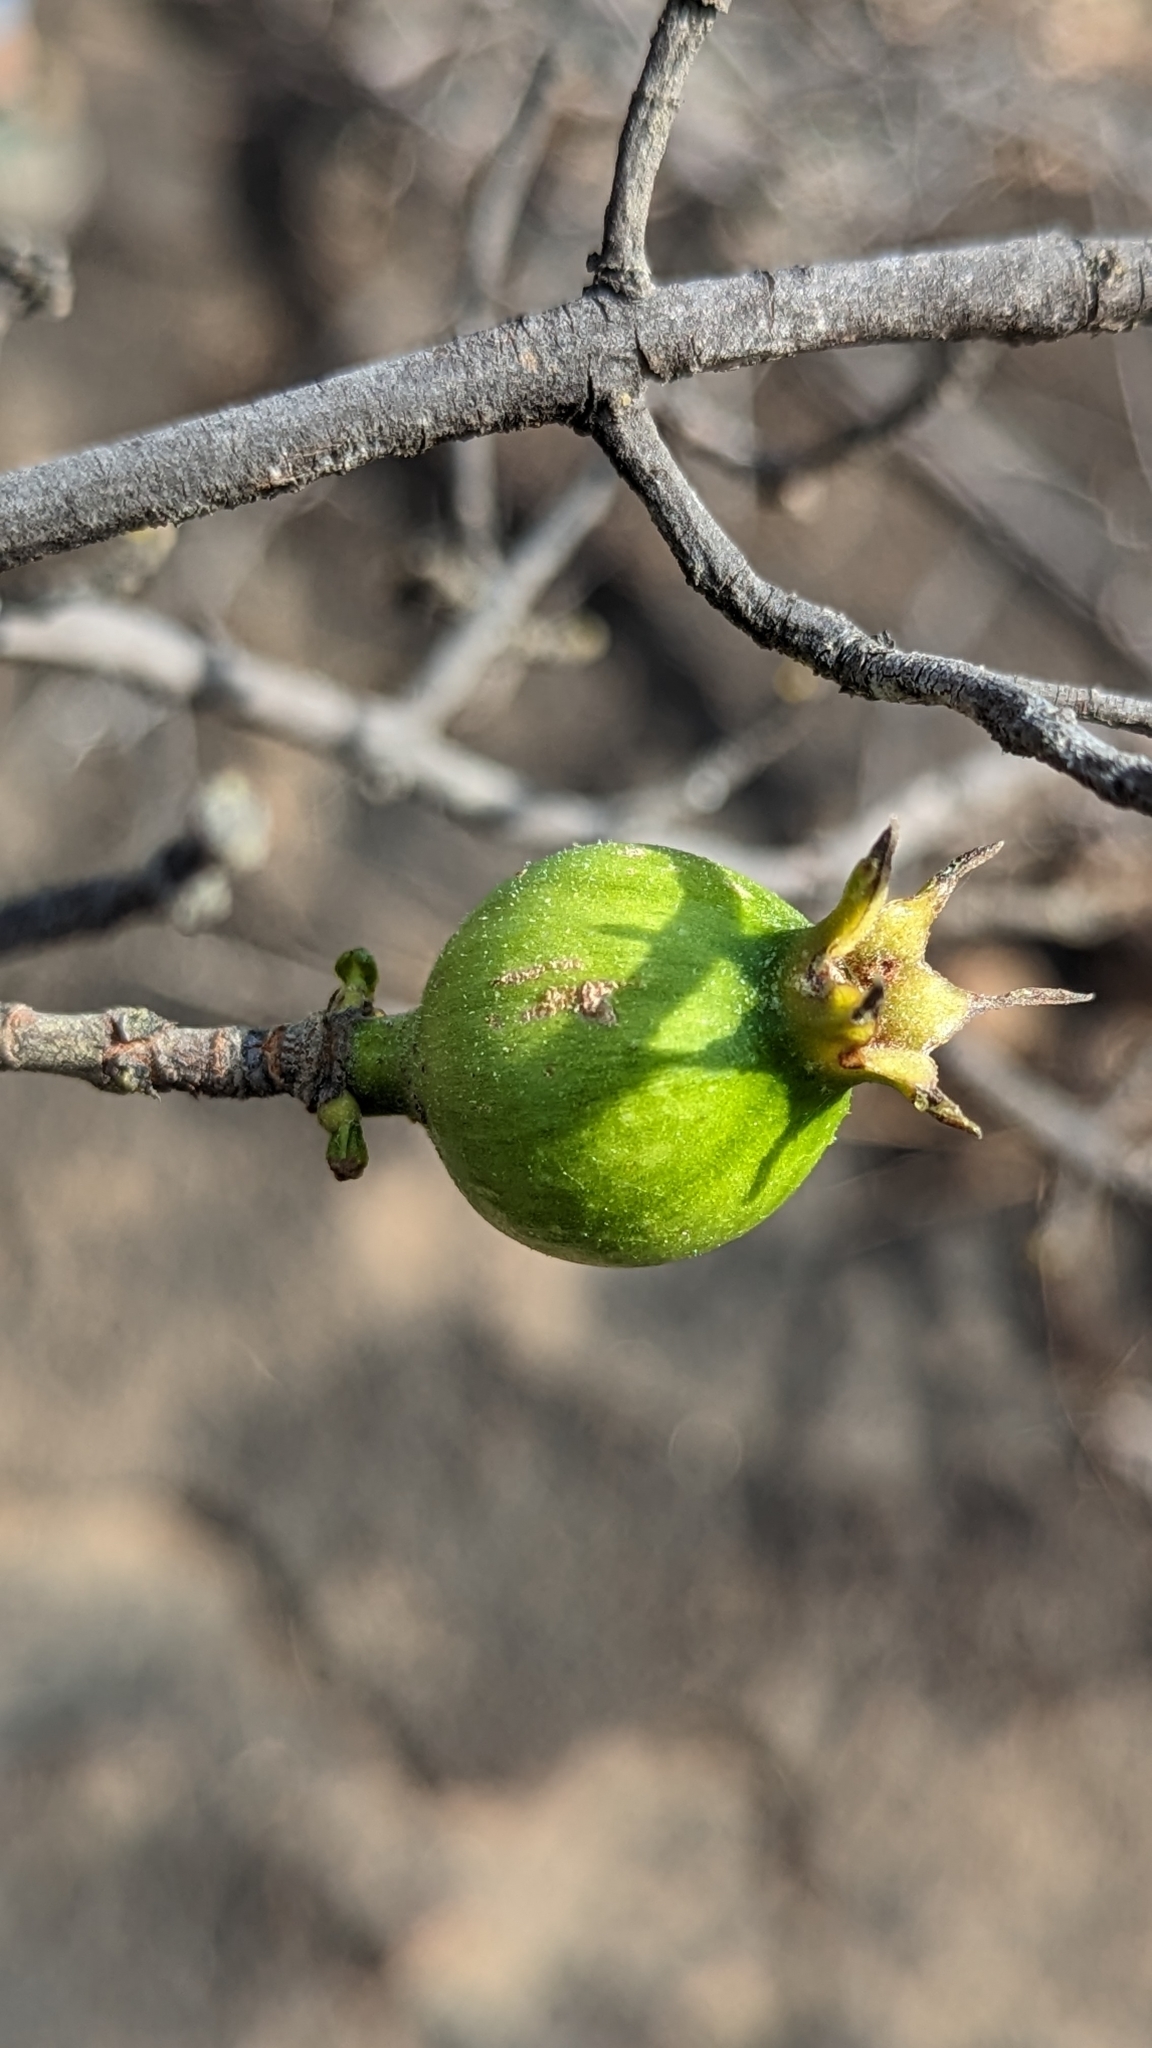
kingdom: Plantae
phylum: Tracheophyta
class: Magnoliopsida
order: Gentianales
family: Rubiaceae
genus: Gardenia
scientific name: Gardenia gummifera
